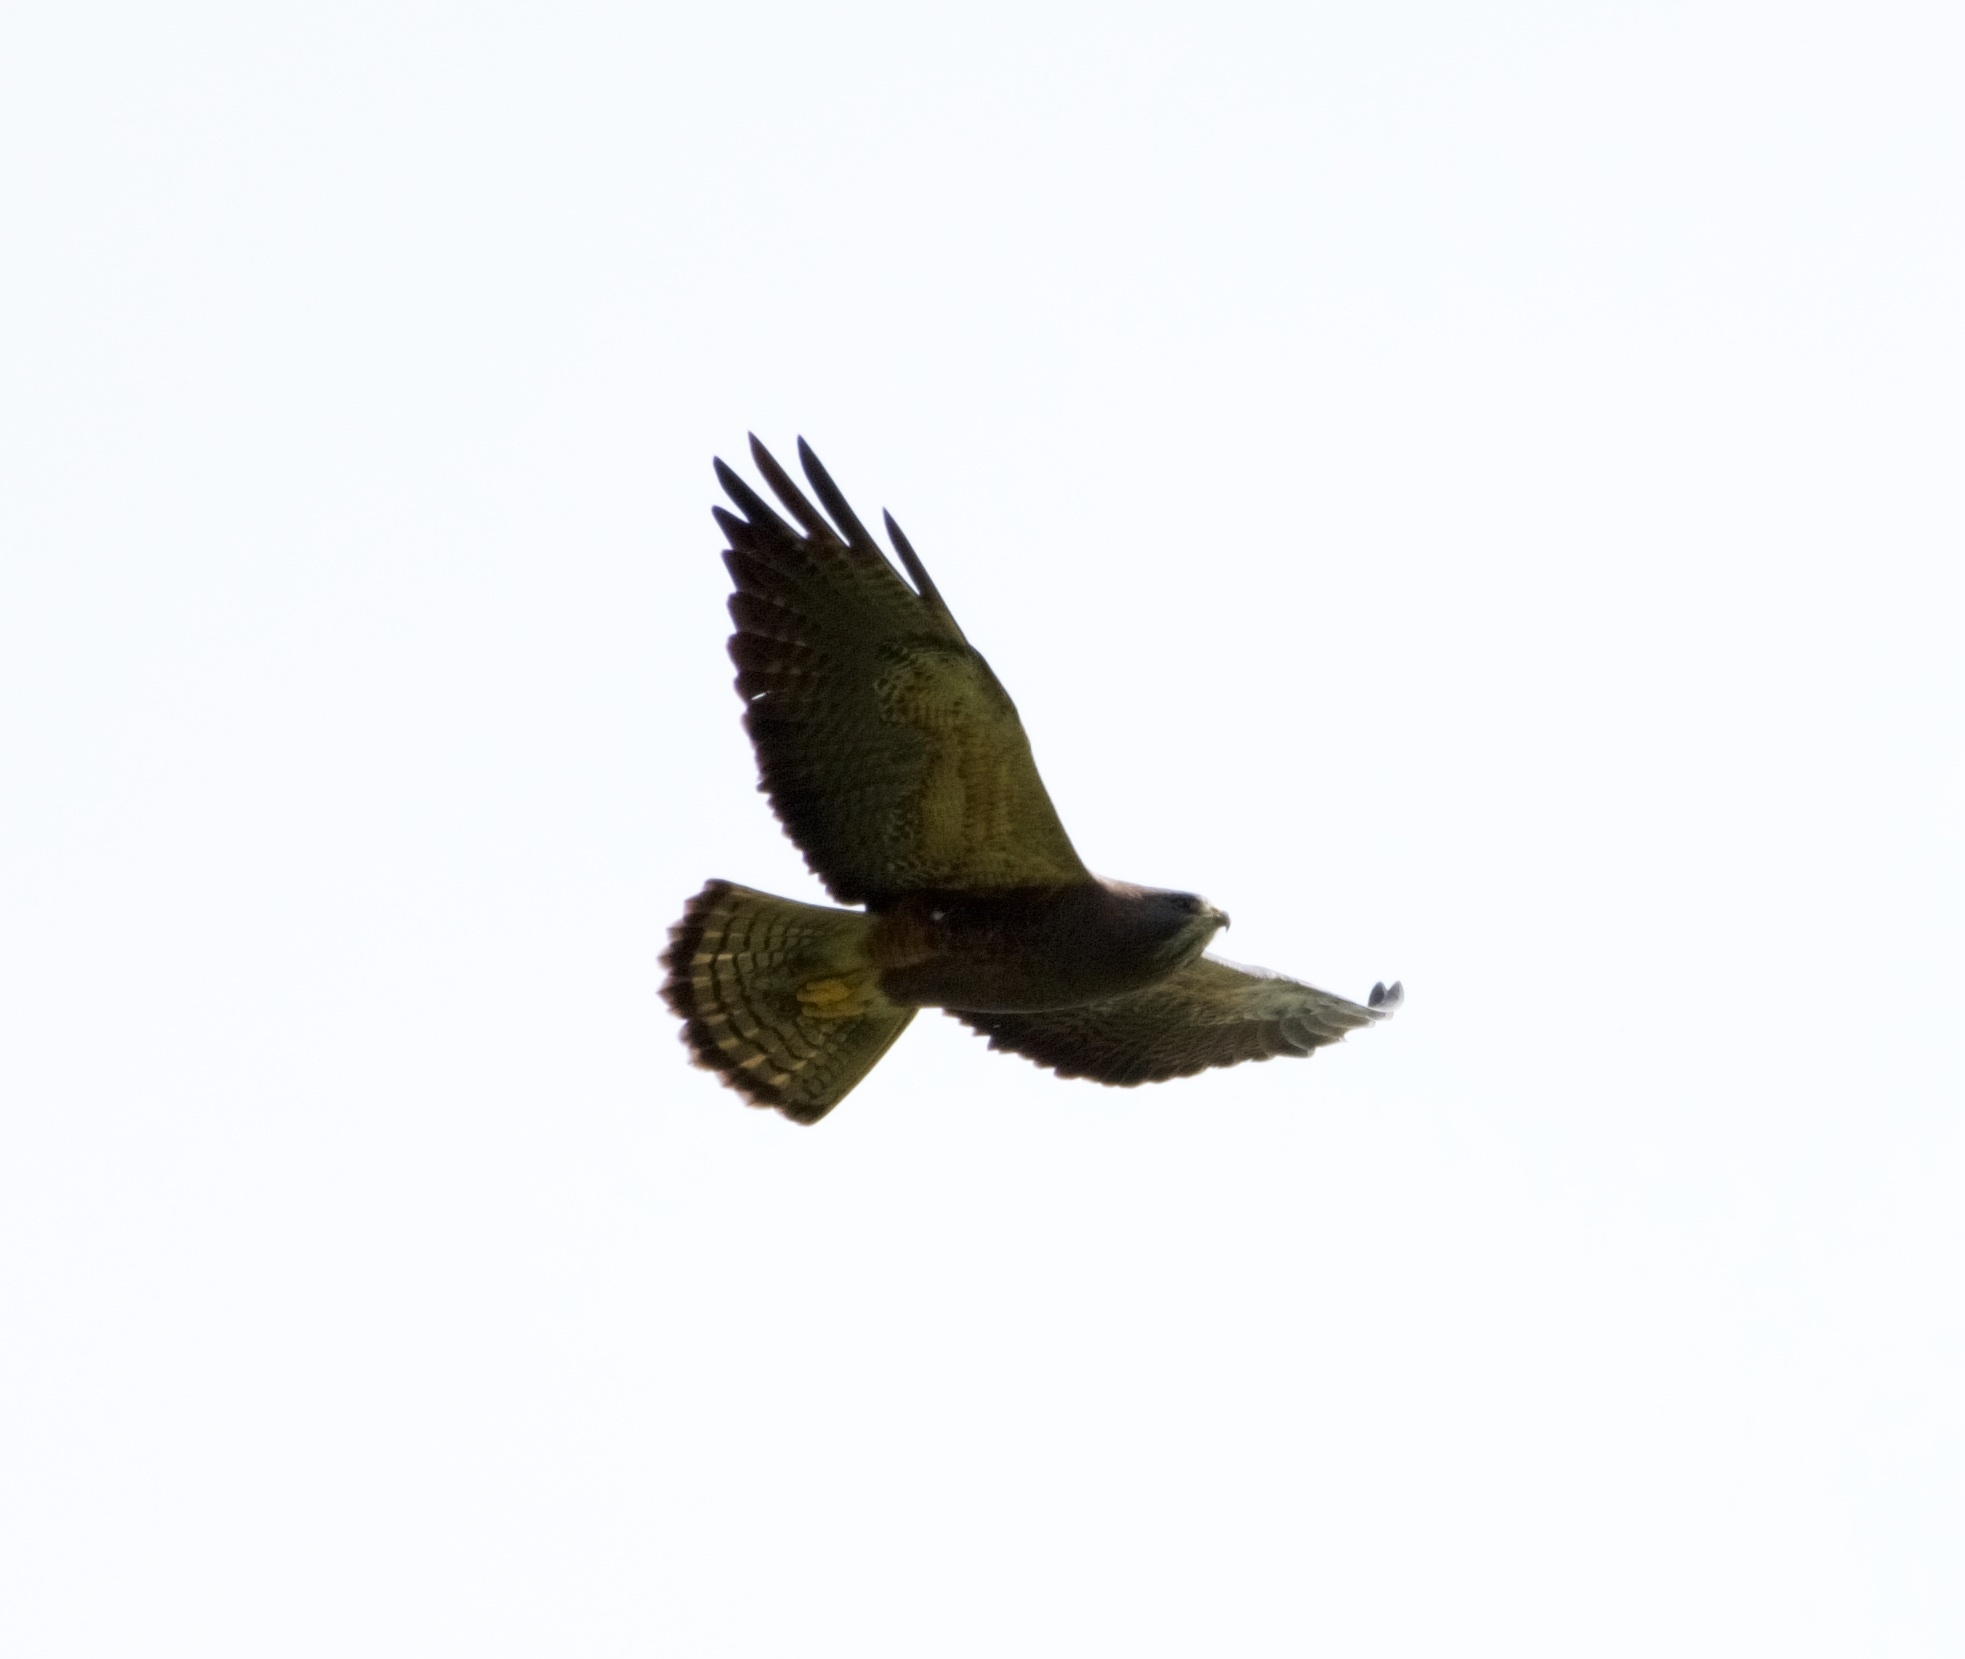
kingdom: Animalia
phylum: Chordata
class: Aves
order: Accipitriformes
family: Accipitridae
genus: Buteo
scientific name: Buteo swainsoni
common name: Swainson's hawk
